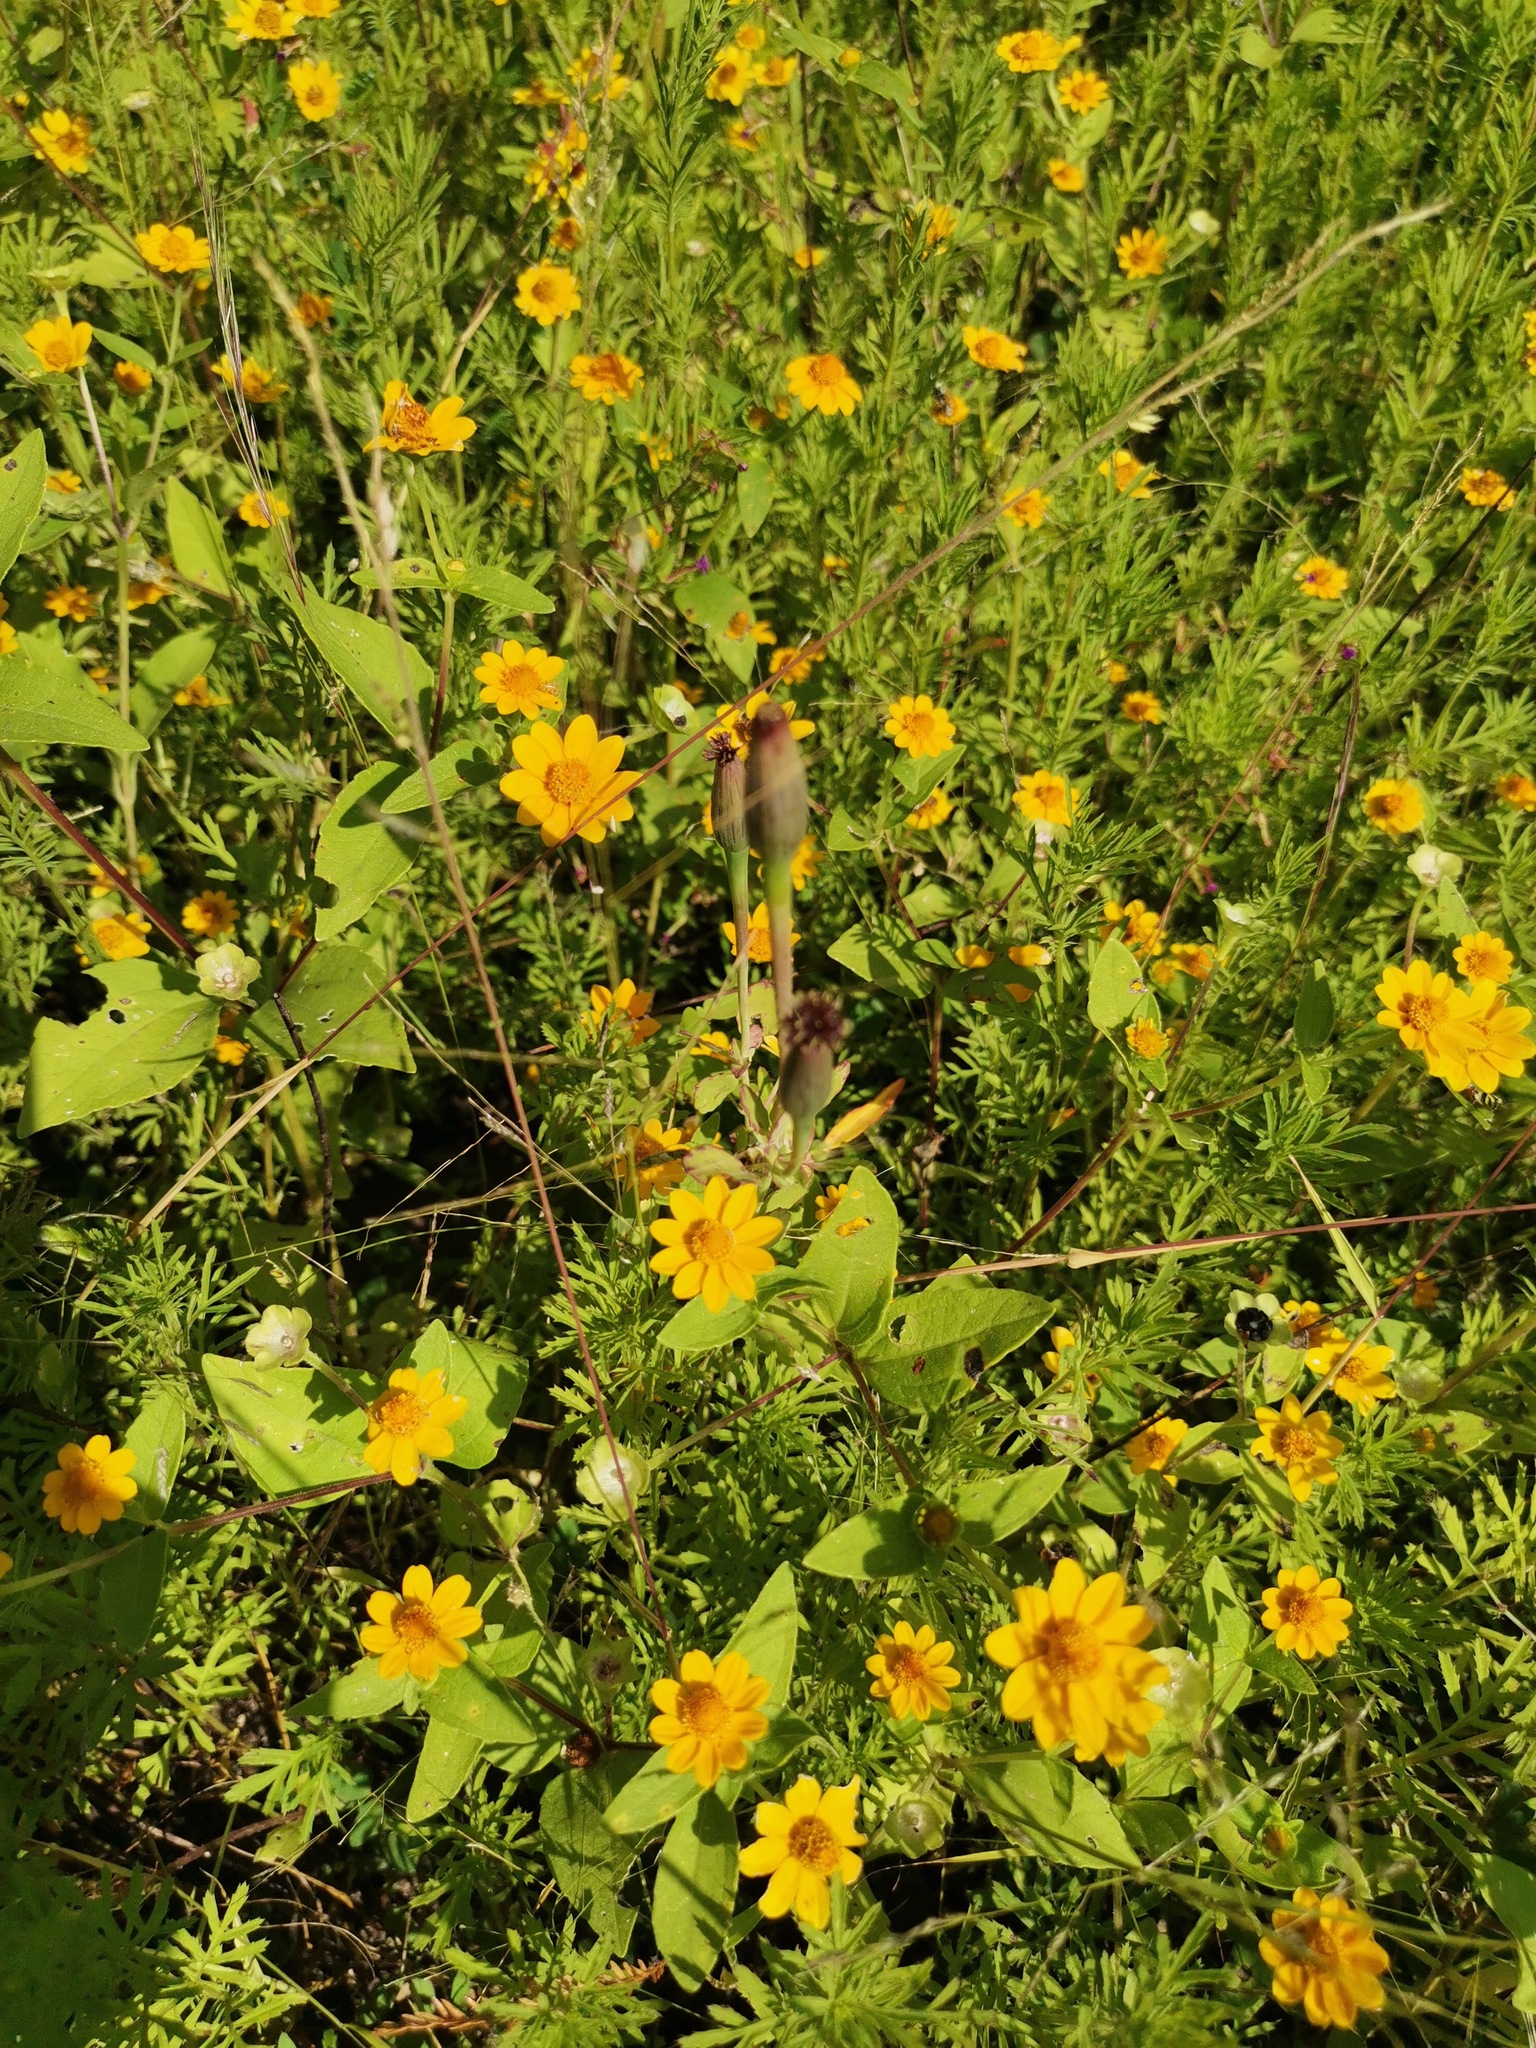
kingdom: Plantae
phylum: Tracheophyta
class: Magnoliopsida
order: Asterales
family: Asteraceae
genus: Porophyllum
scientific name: Porophyllum ruderale
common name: Yerba porosa
